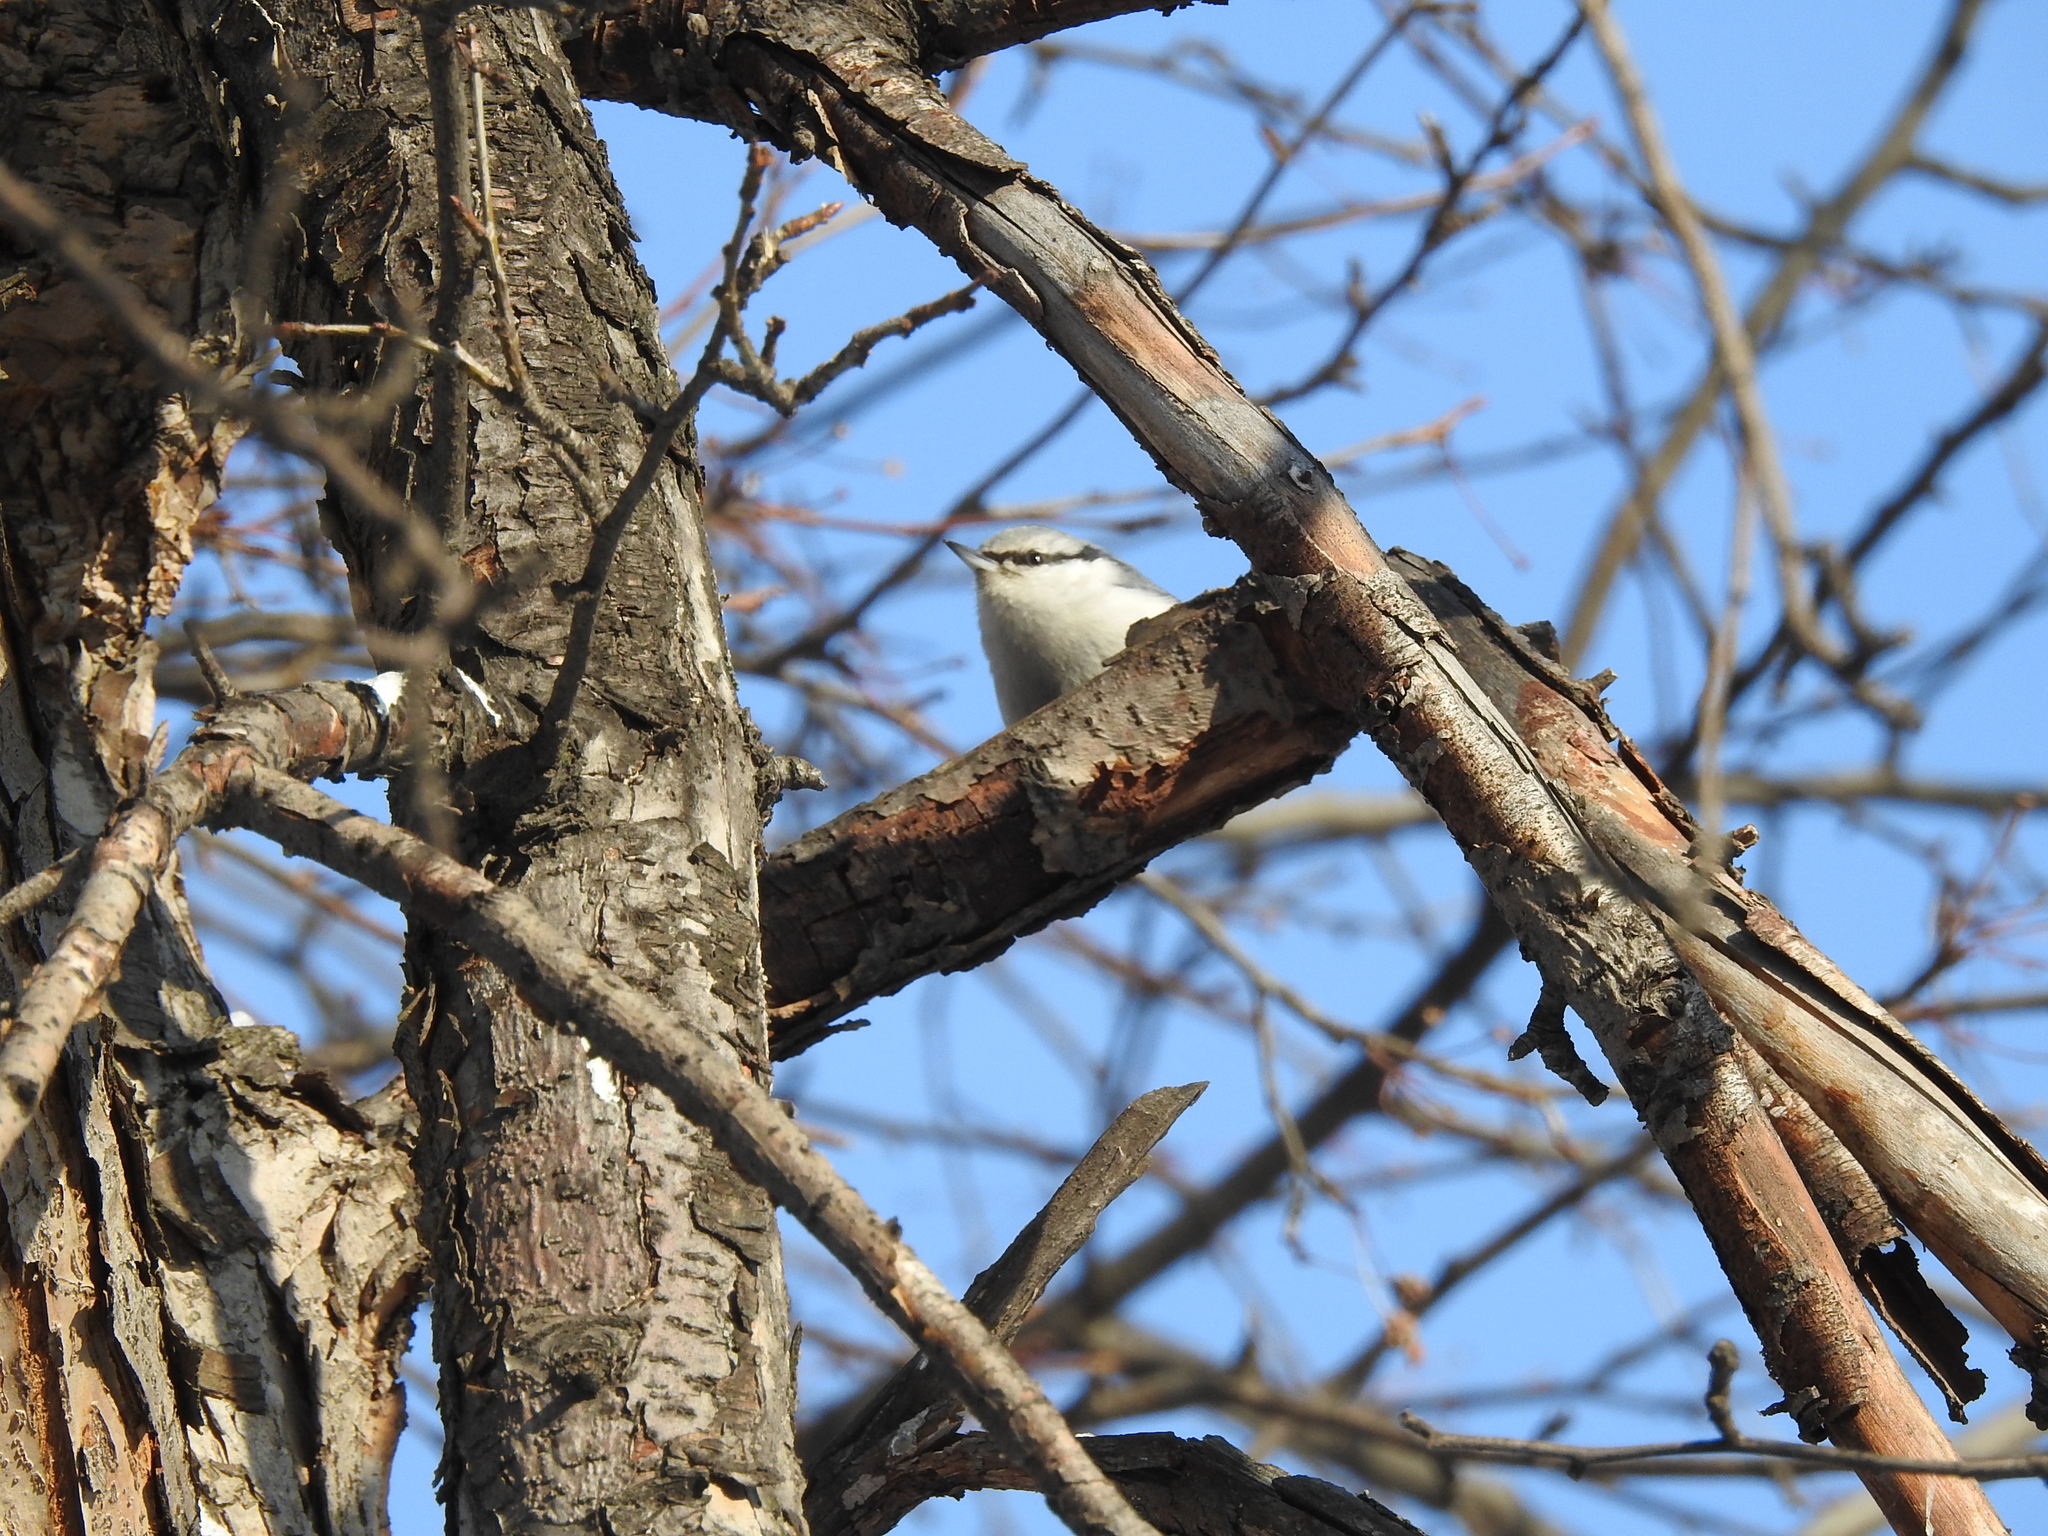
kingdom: Animalia
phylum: Chordata
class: Aves
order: Passeriformes
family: Sittidae
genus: Sitta
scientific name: Sitta europaea
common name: Eurasian nuthatch
